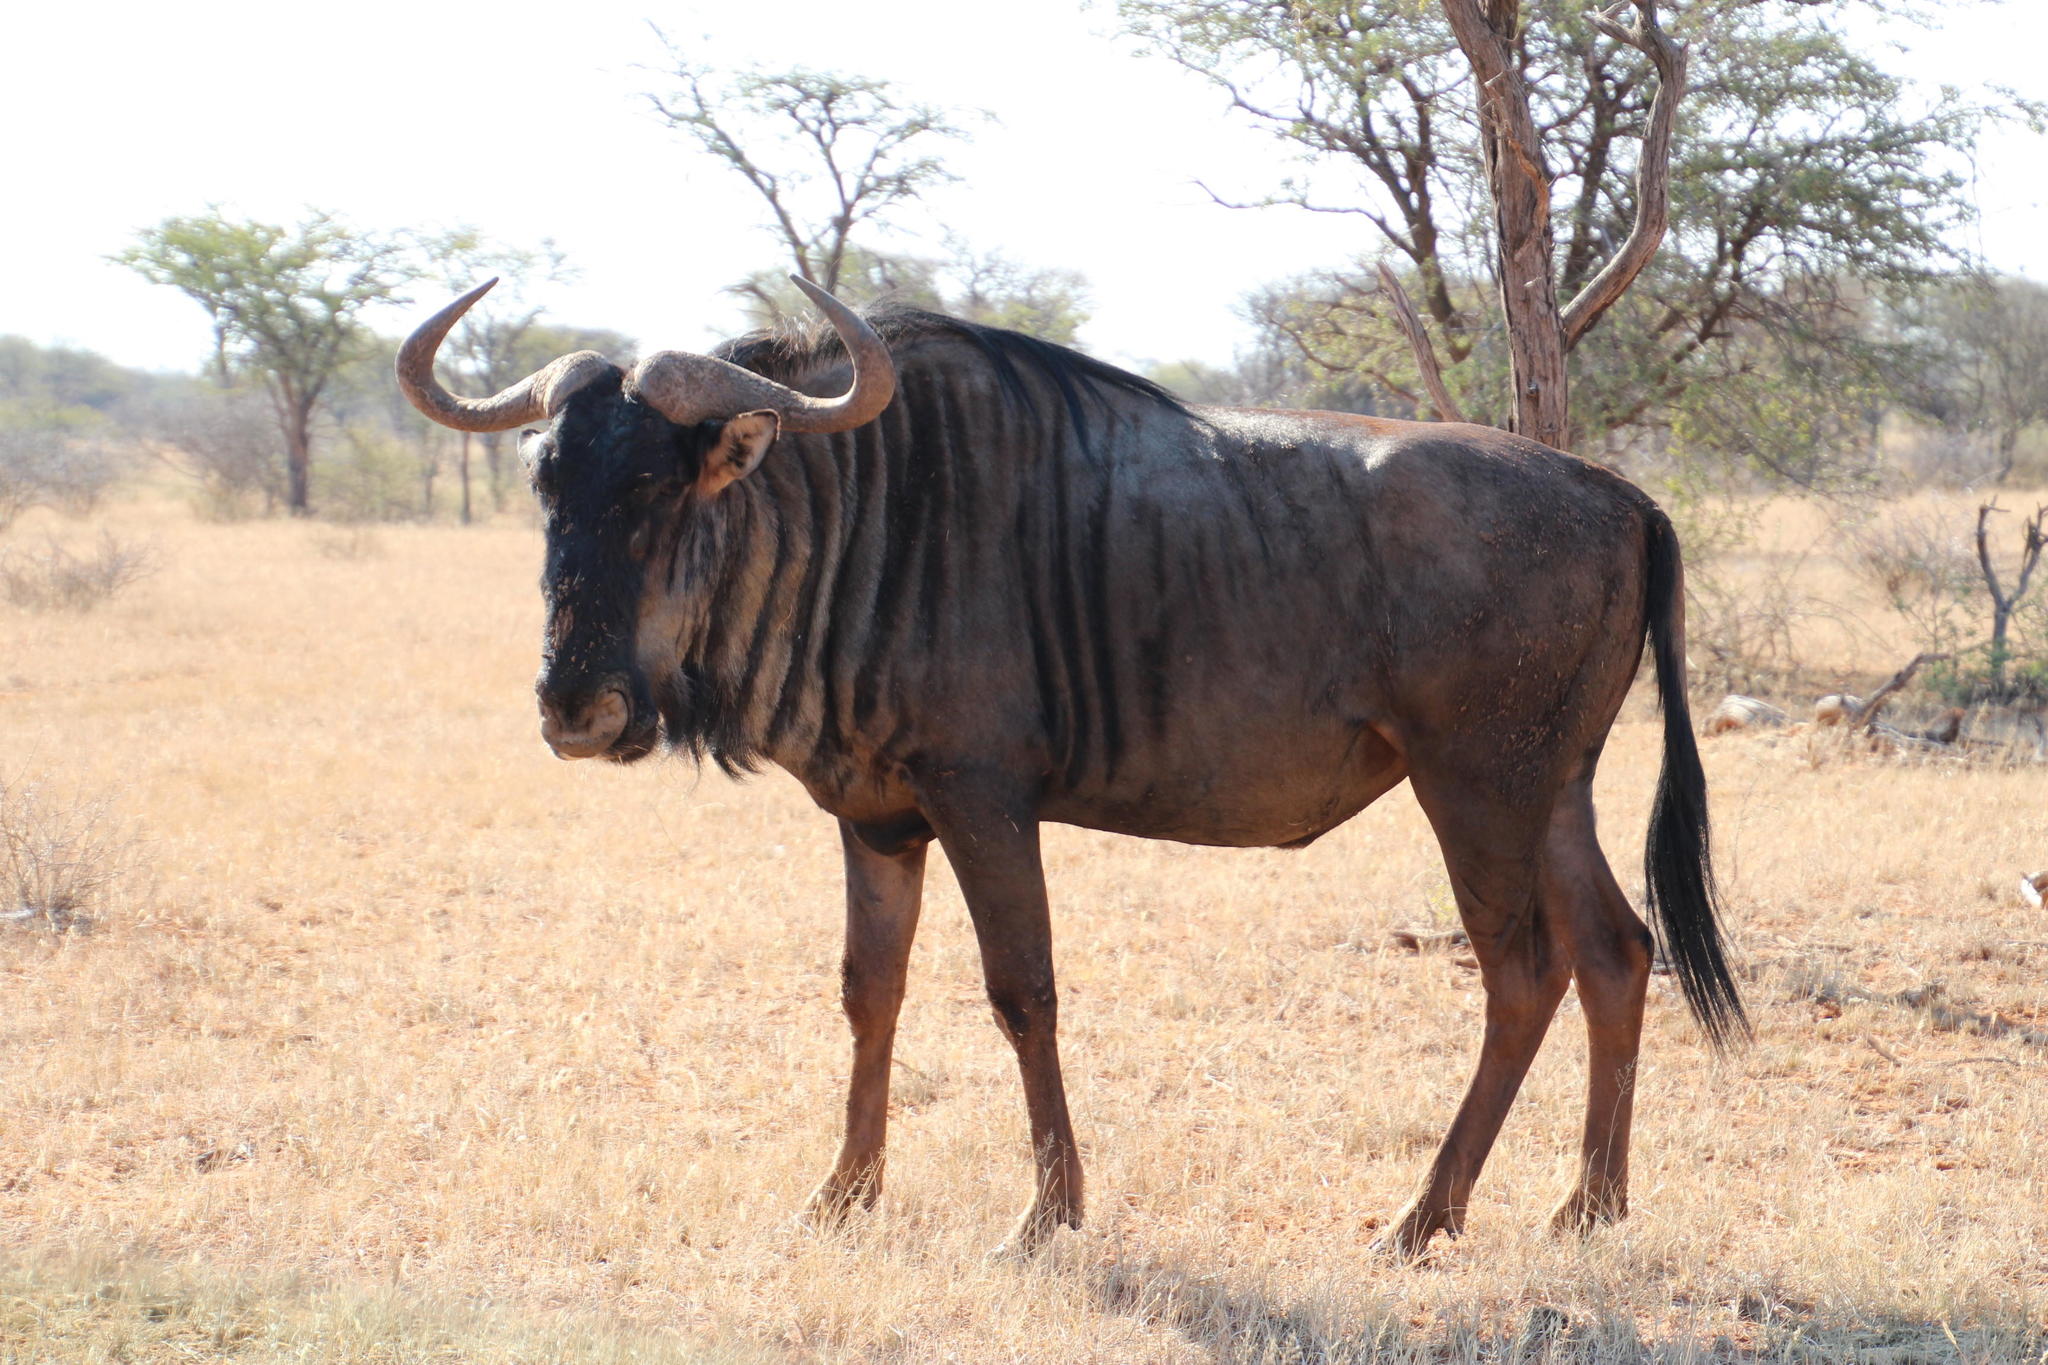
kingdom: Animalia
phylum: Chordata
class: Mammalia
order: Artiodactyla
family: Bovidae
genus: Connochaetes
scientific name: Connochaetes taurinus
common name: Blue wildebeest
